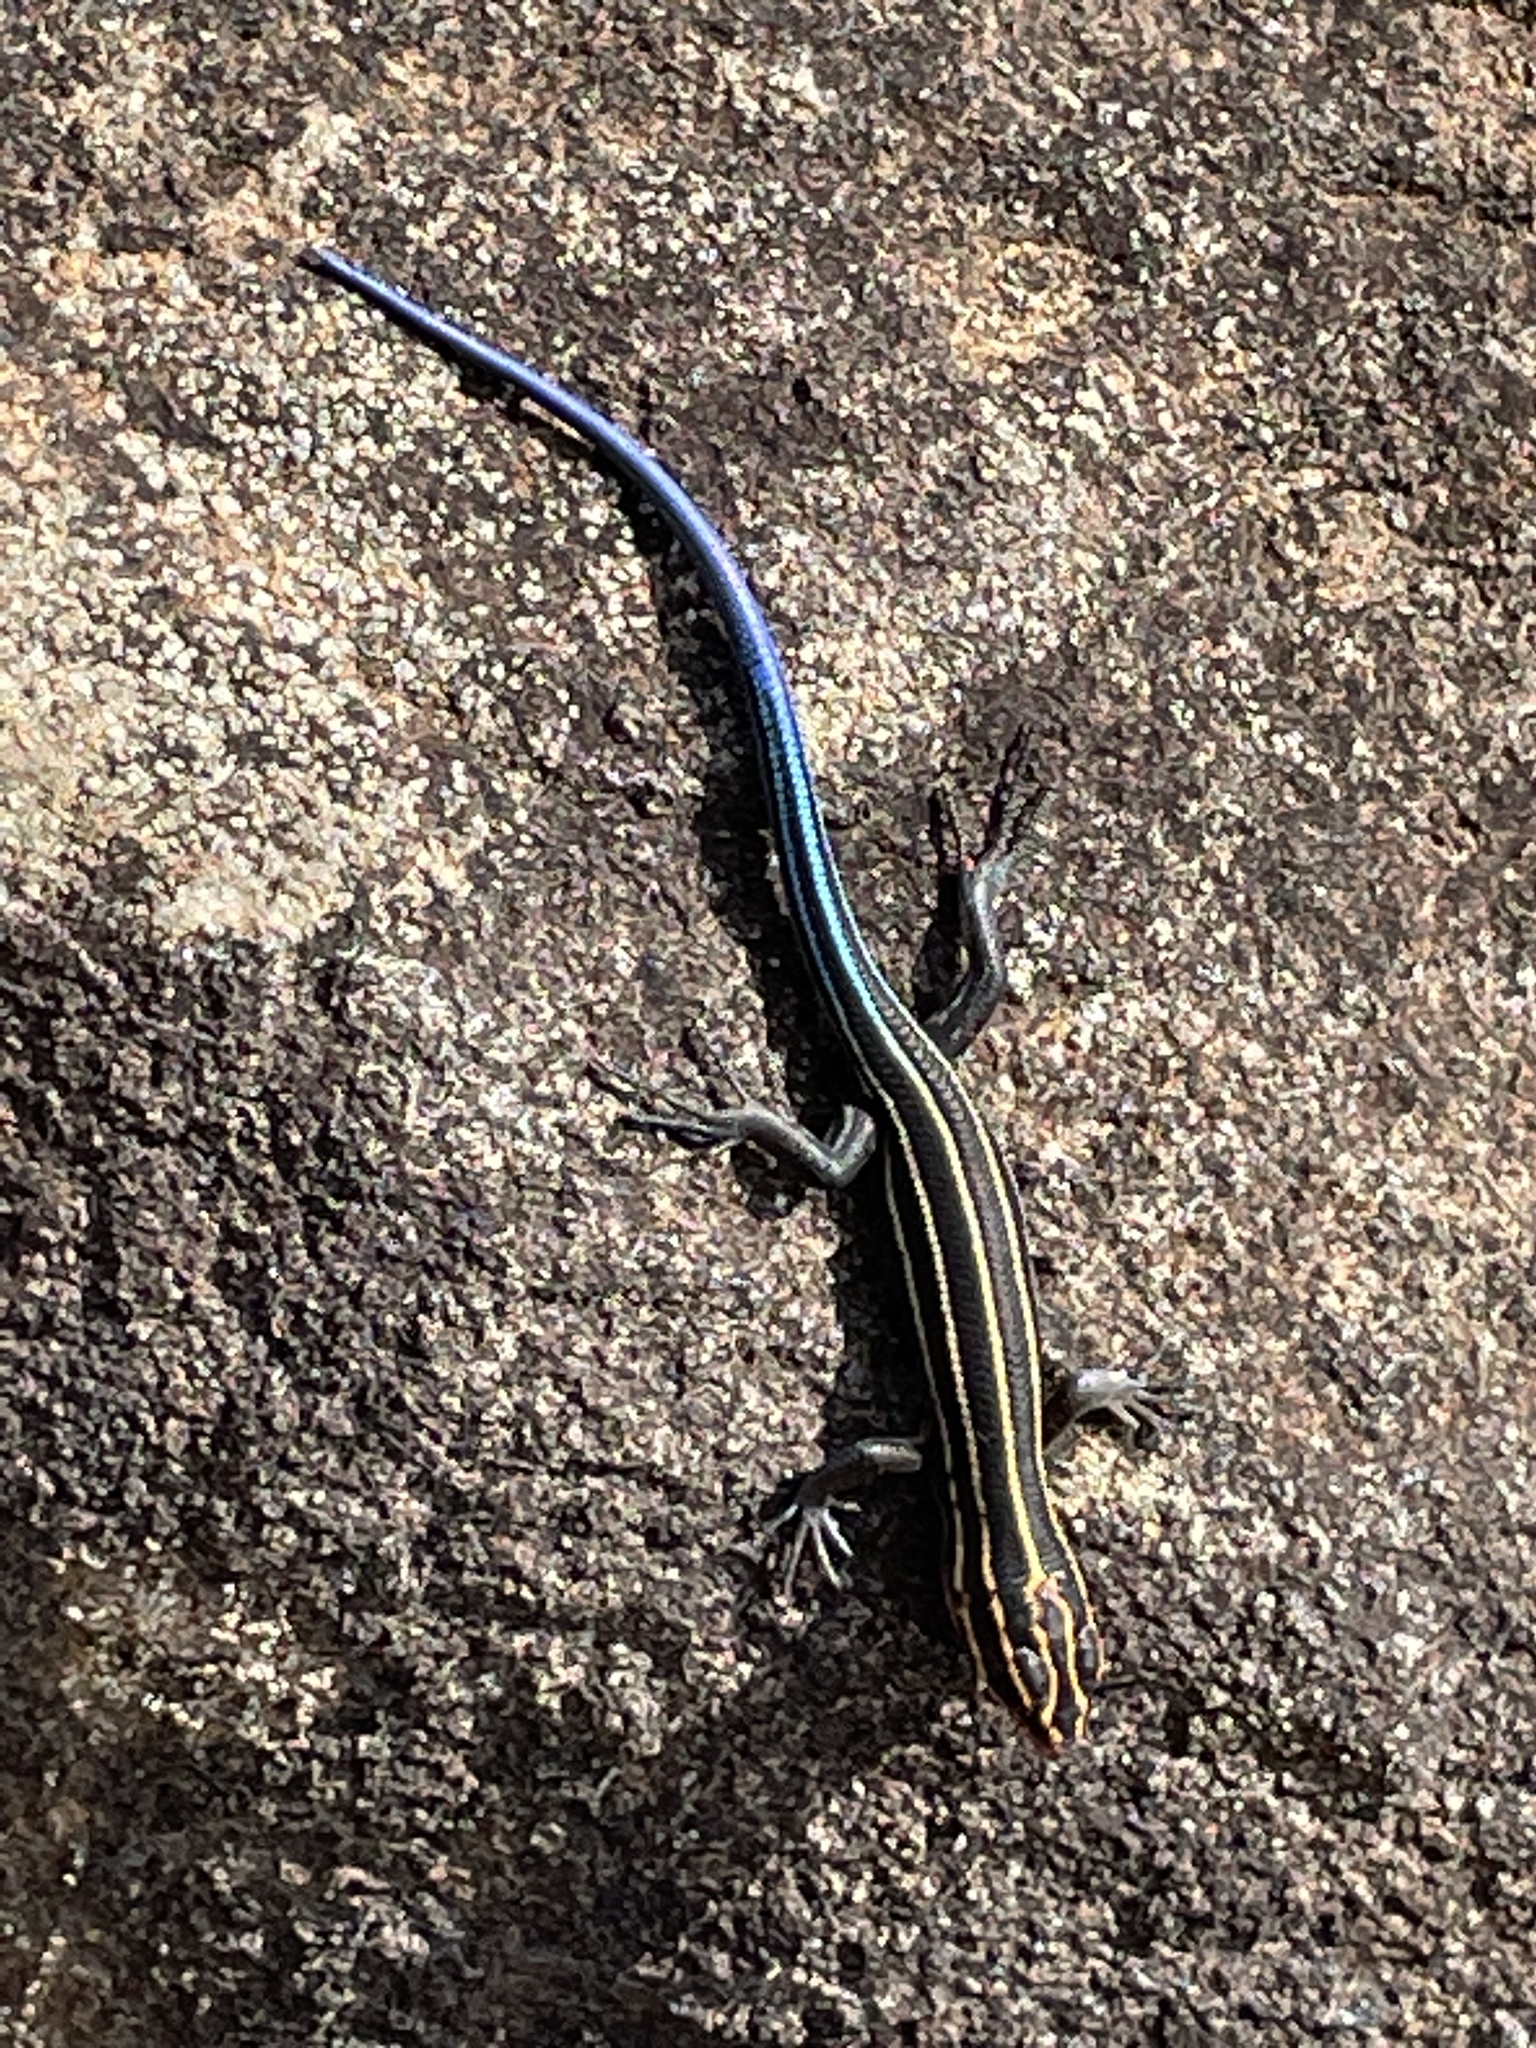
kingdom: Animalia
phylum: Chordata
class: Squamata
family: Scincidae
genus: Plestiodon
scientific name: Plestiodon fasciatus
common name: Five-lined skink
